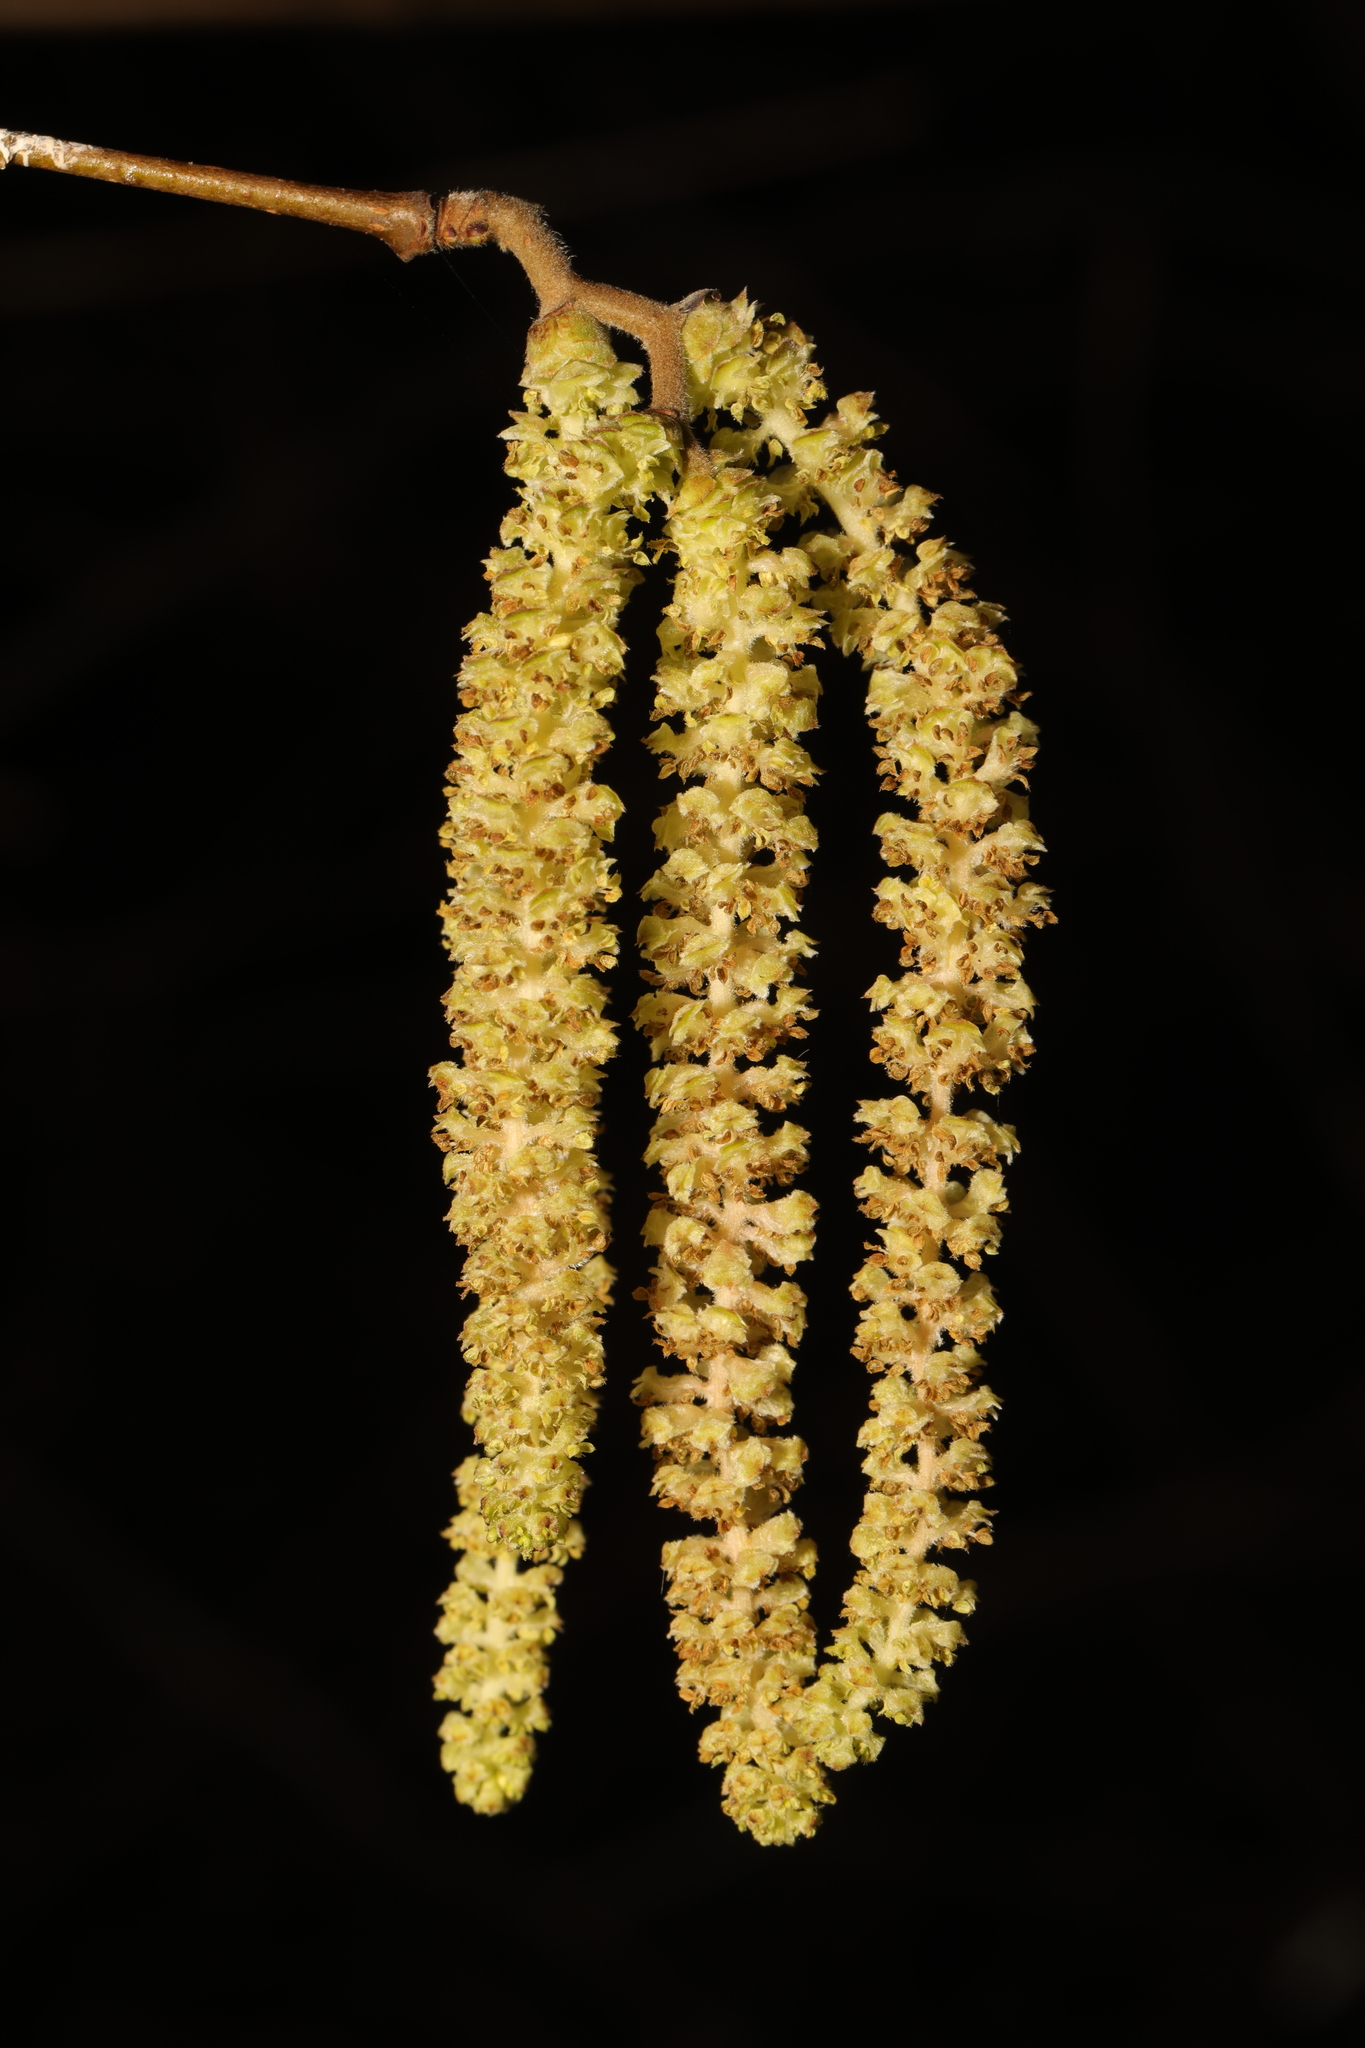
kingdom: Plantae
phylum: Tracheophyta
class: Magnoliopsida
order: Fagales
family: Betulaceae
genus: Corylus
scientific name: Corylus avellana
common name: European hazel
